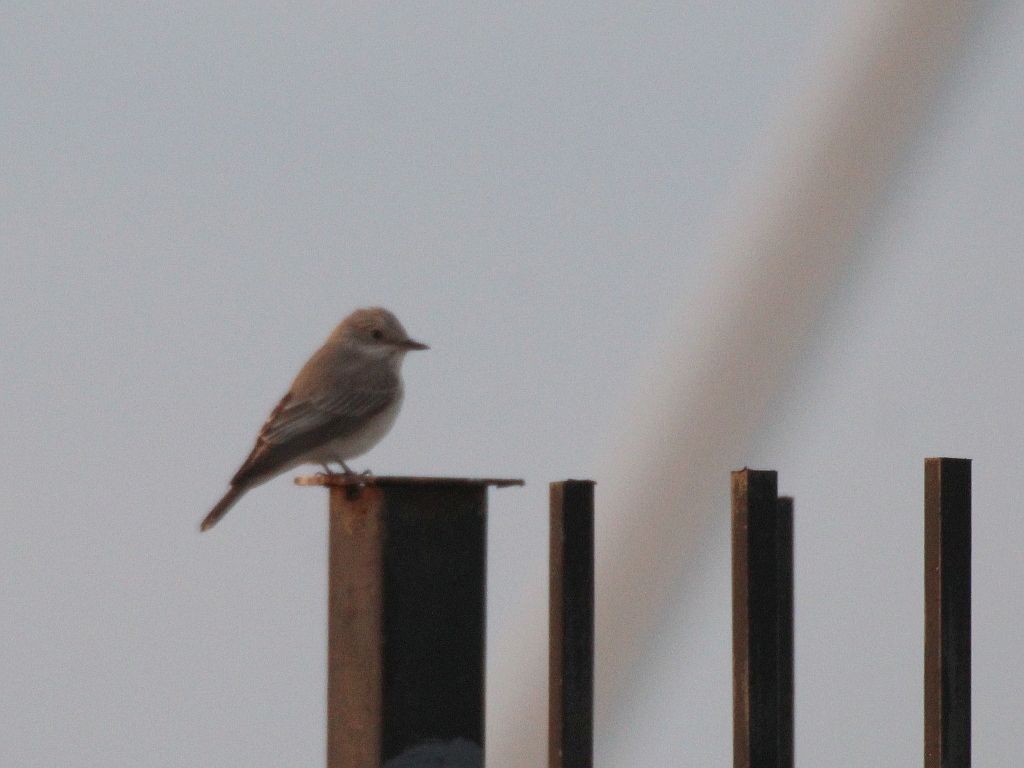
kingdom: Animalia
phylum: Chordata
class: Aves
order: Passeriformes
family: Muscicapidae
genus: Muscicapa
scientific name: Muscicapa striata
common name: Spotted flycatcher
